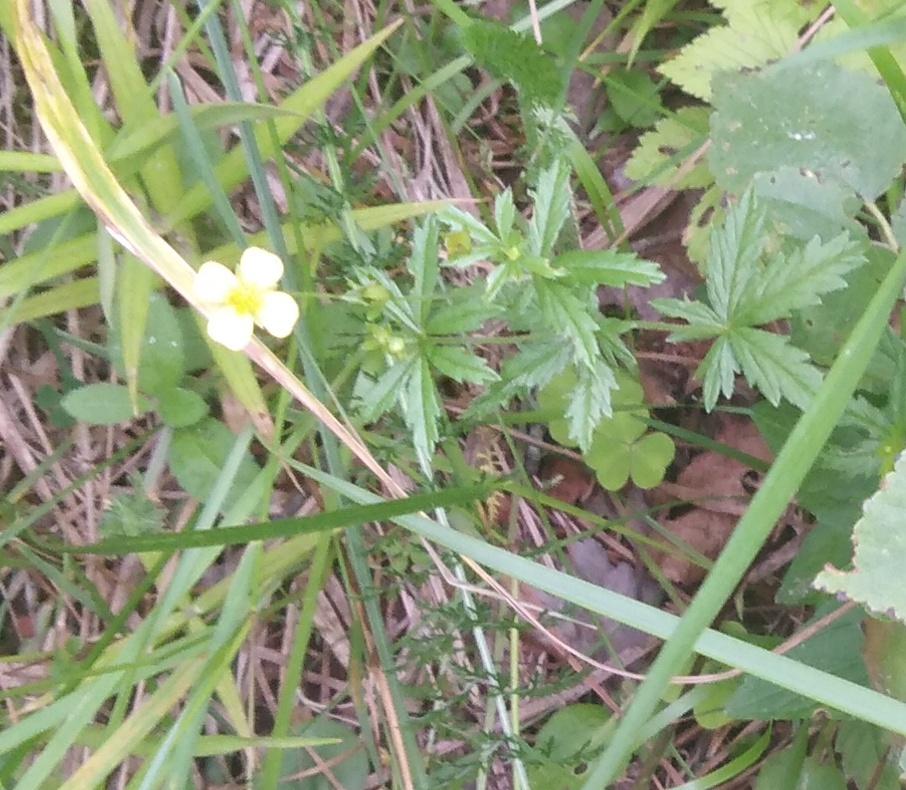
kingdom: Plantae
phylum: Tracheophyta
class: Magnoliopsida
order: Rosales
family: Rosaceae
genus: Potentilla
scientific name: Potentilla erecta
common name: Tormentil
